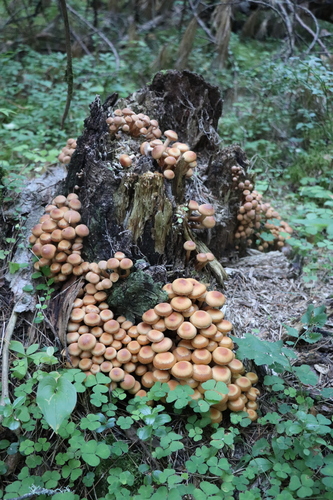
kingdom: Fungi
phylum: Basidiomycota
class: Agaricomycetes
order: Agaricales
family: Strophariaceae
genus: Kuehneromyces
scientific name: Kuehneromyces mutabilis
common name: Sheathed woodtuft
